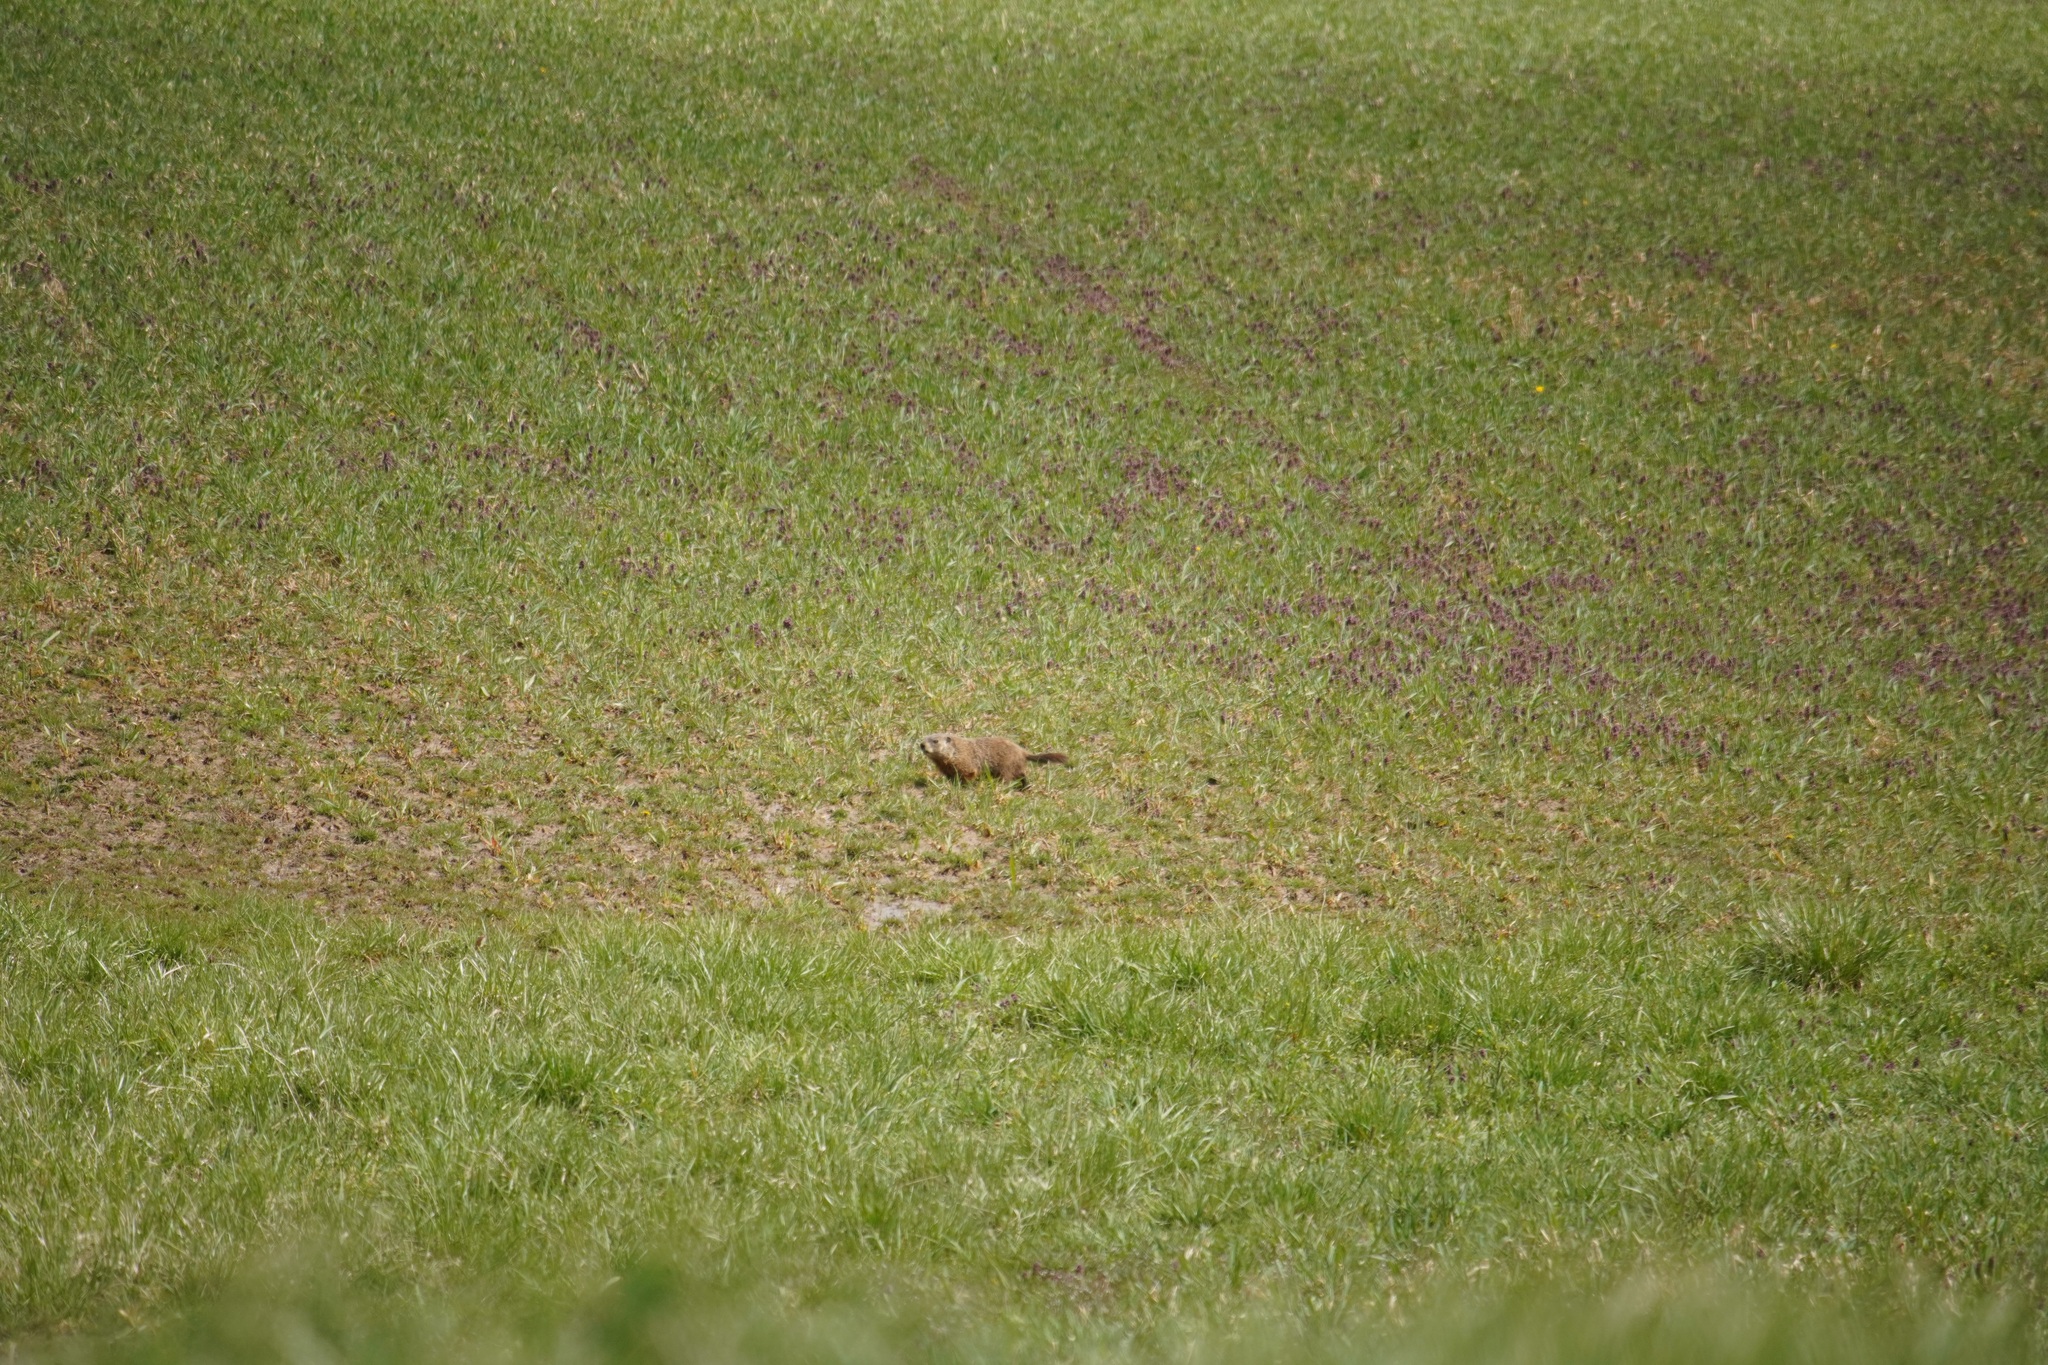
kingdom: Animalia
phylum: Chordata
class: Mammalia
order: Rodentia
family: Sciuridae
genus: Marmota
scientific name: Marmota monax
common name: Groundhog
